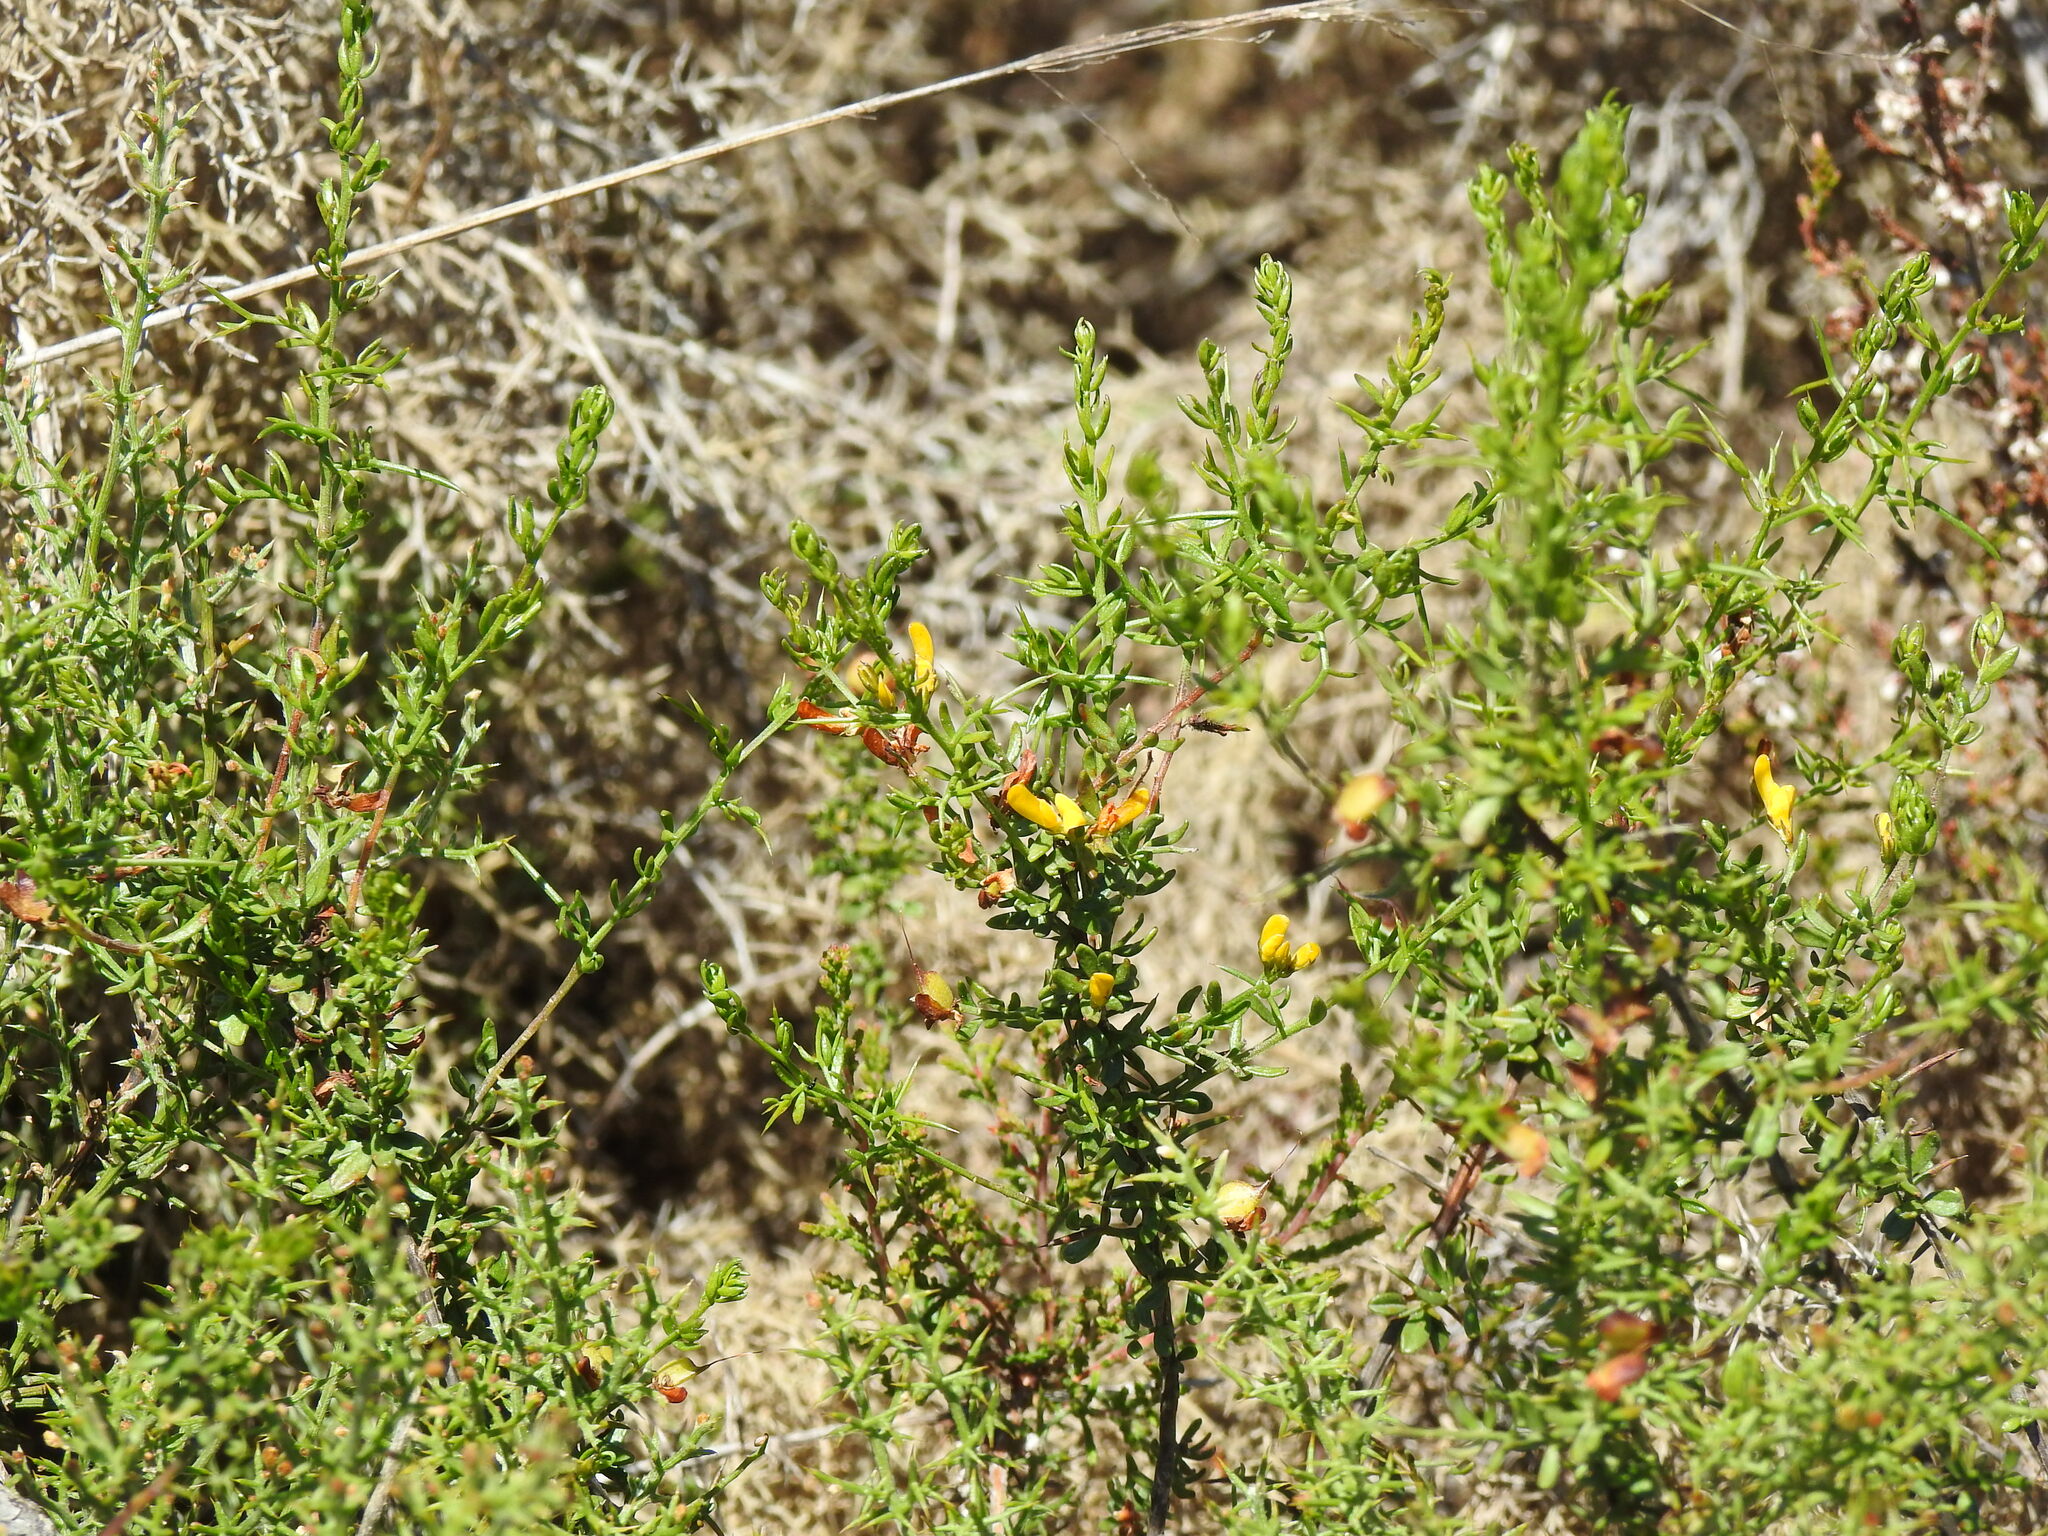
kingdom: Plantae
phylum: Tracheophyta
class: Magnoliopsida
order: Fabales
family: Fabaceae
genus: Genista
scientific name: Genista triacanthos
